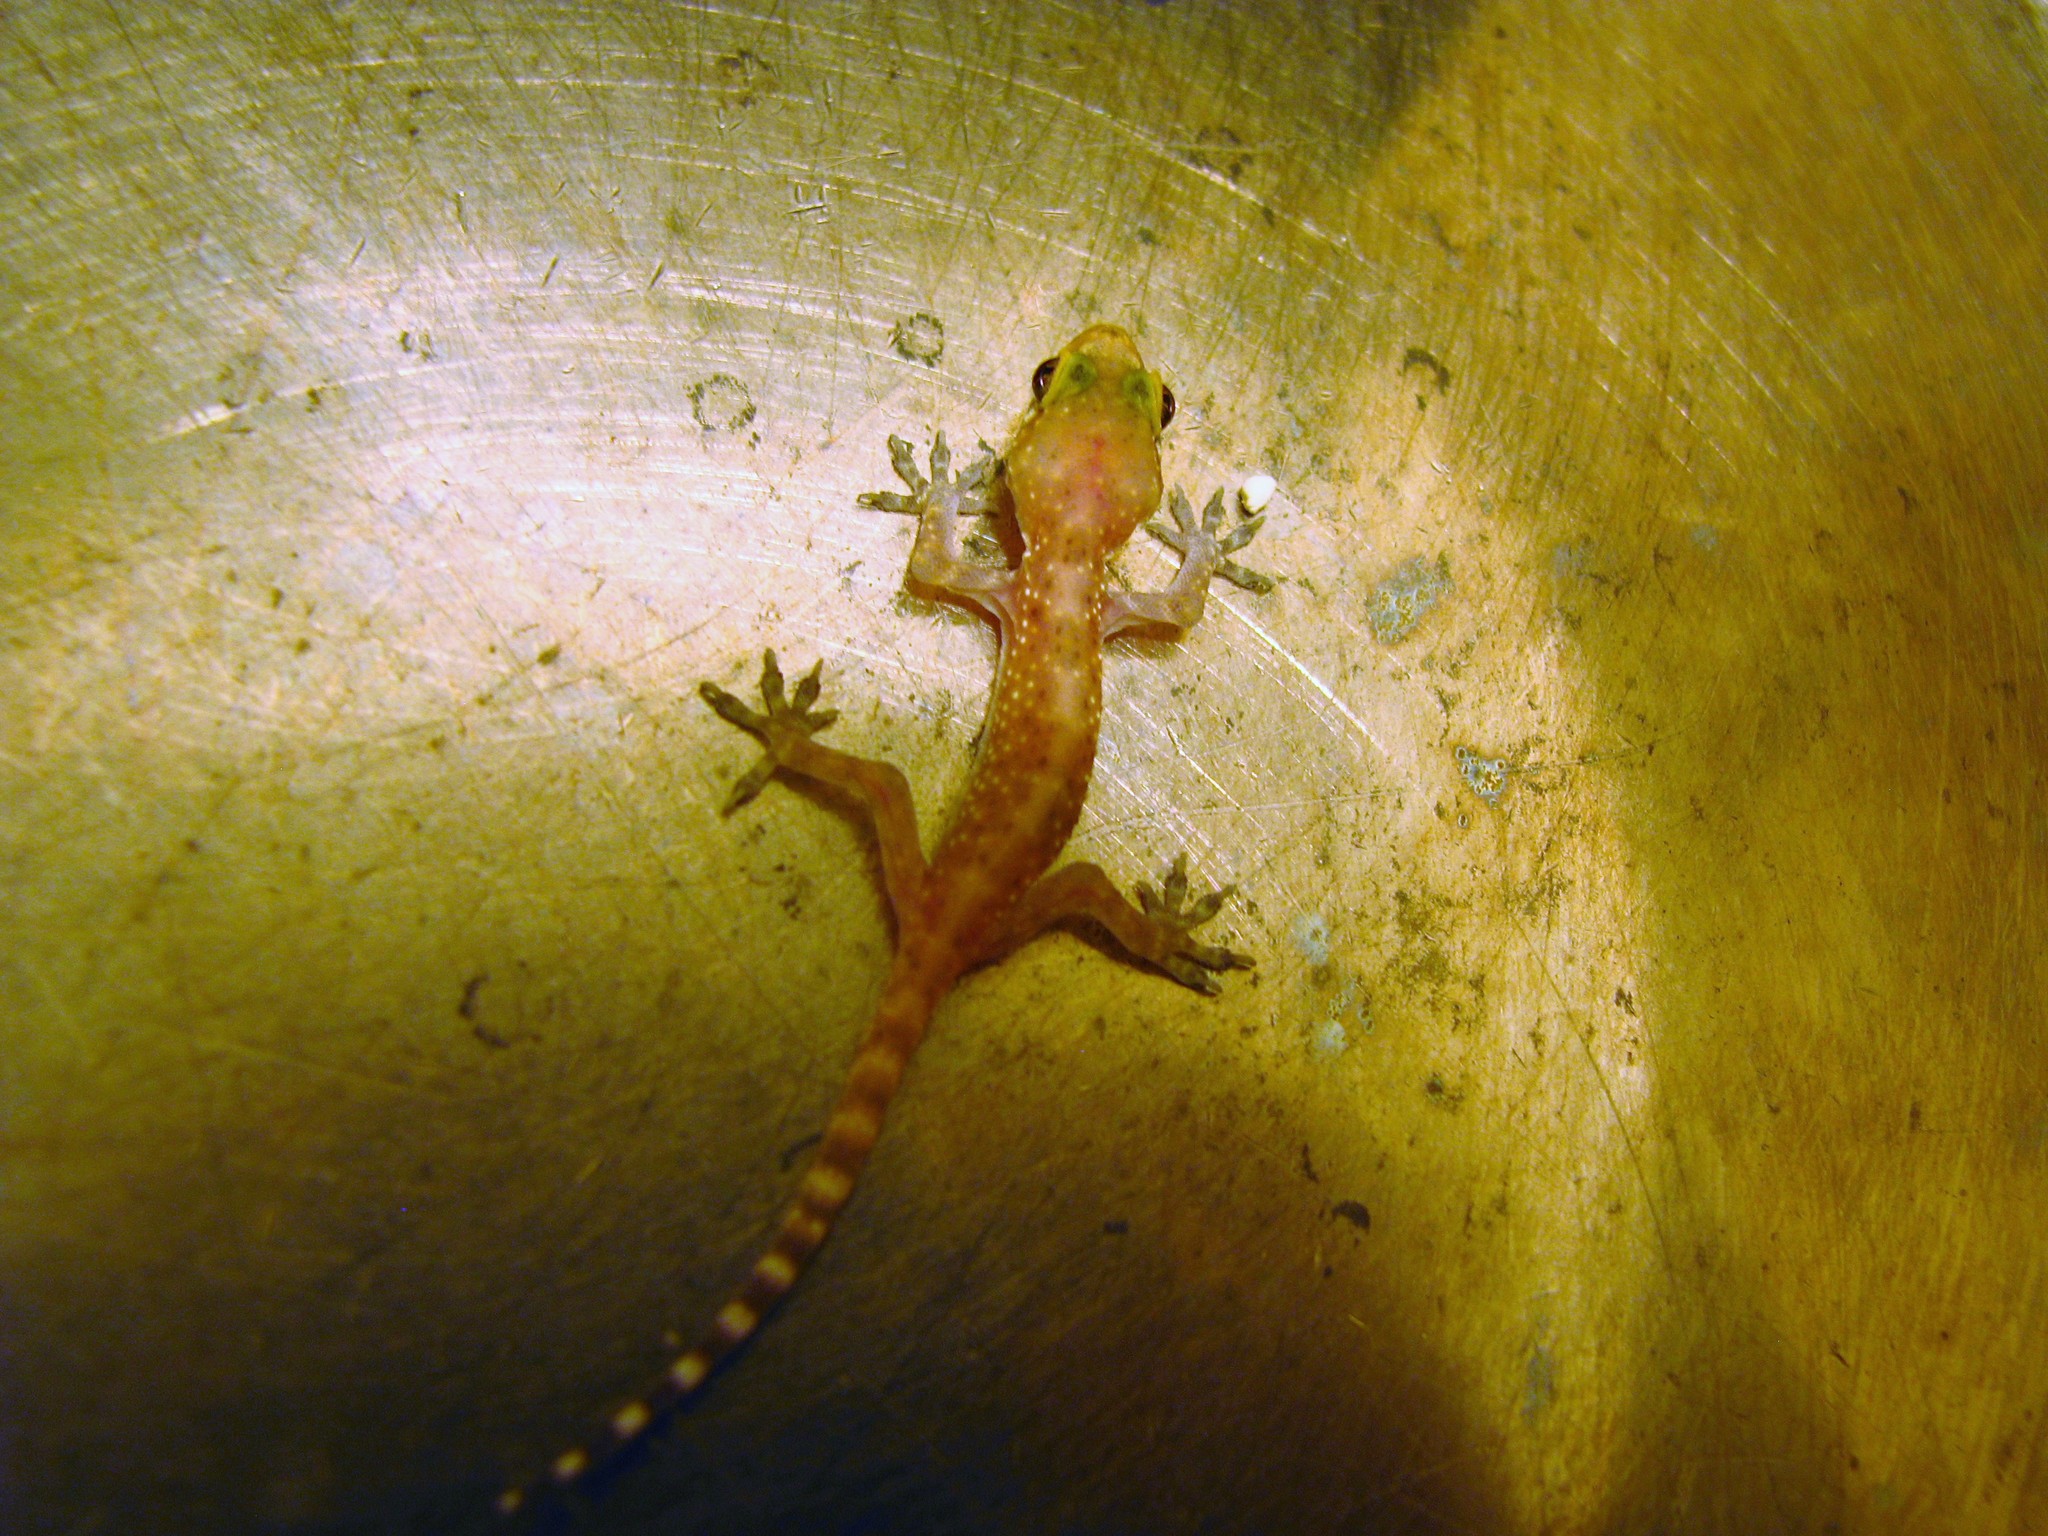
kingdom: Animalia
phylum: Chordata
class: Squamata
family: Gekkonidae
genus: Hemidactylus
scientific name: Hemidactylus turcicus
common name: Turkish gecko
